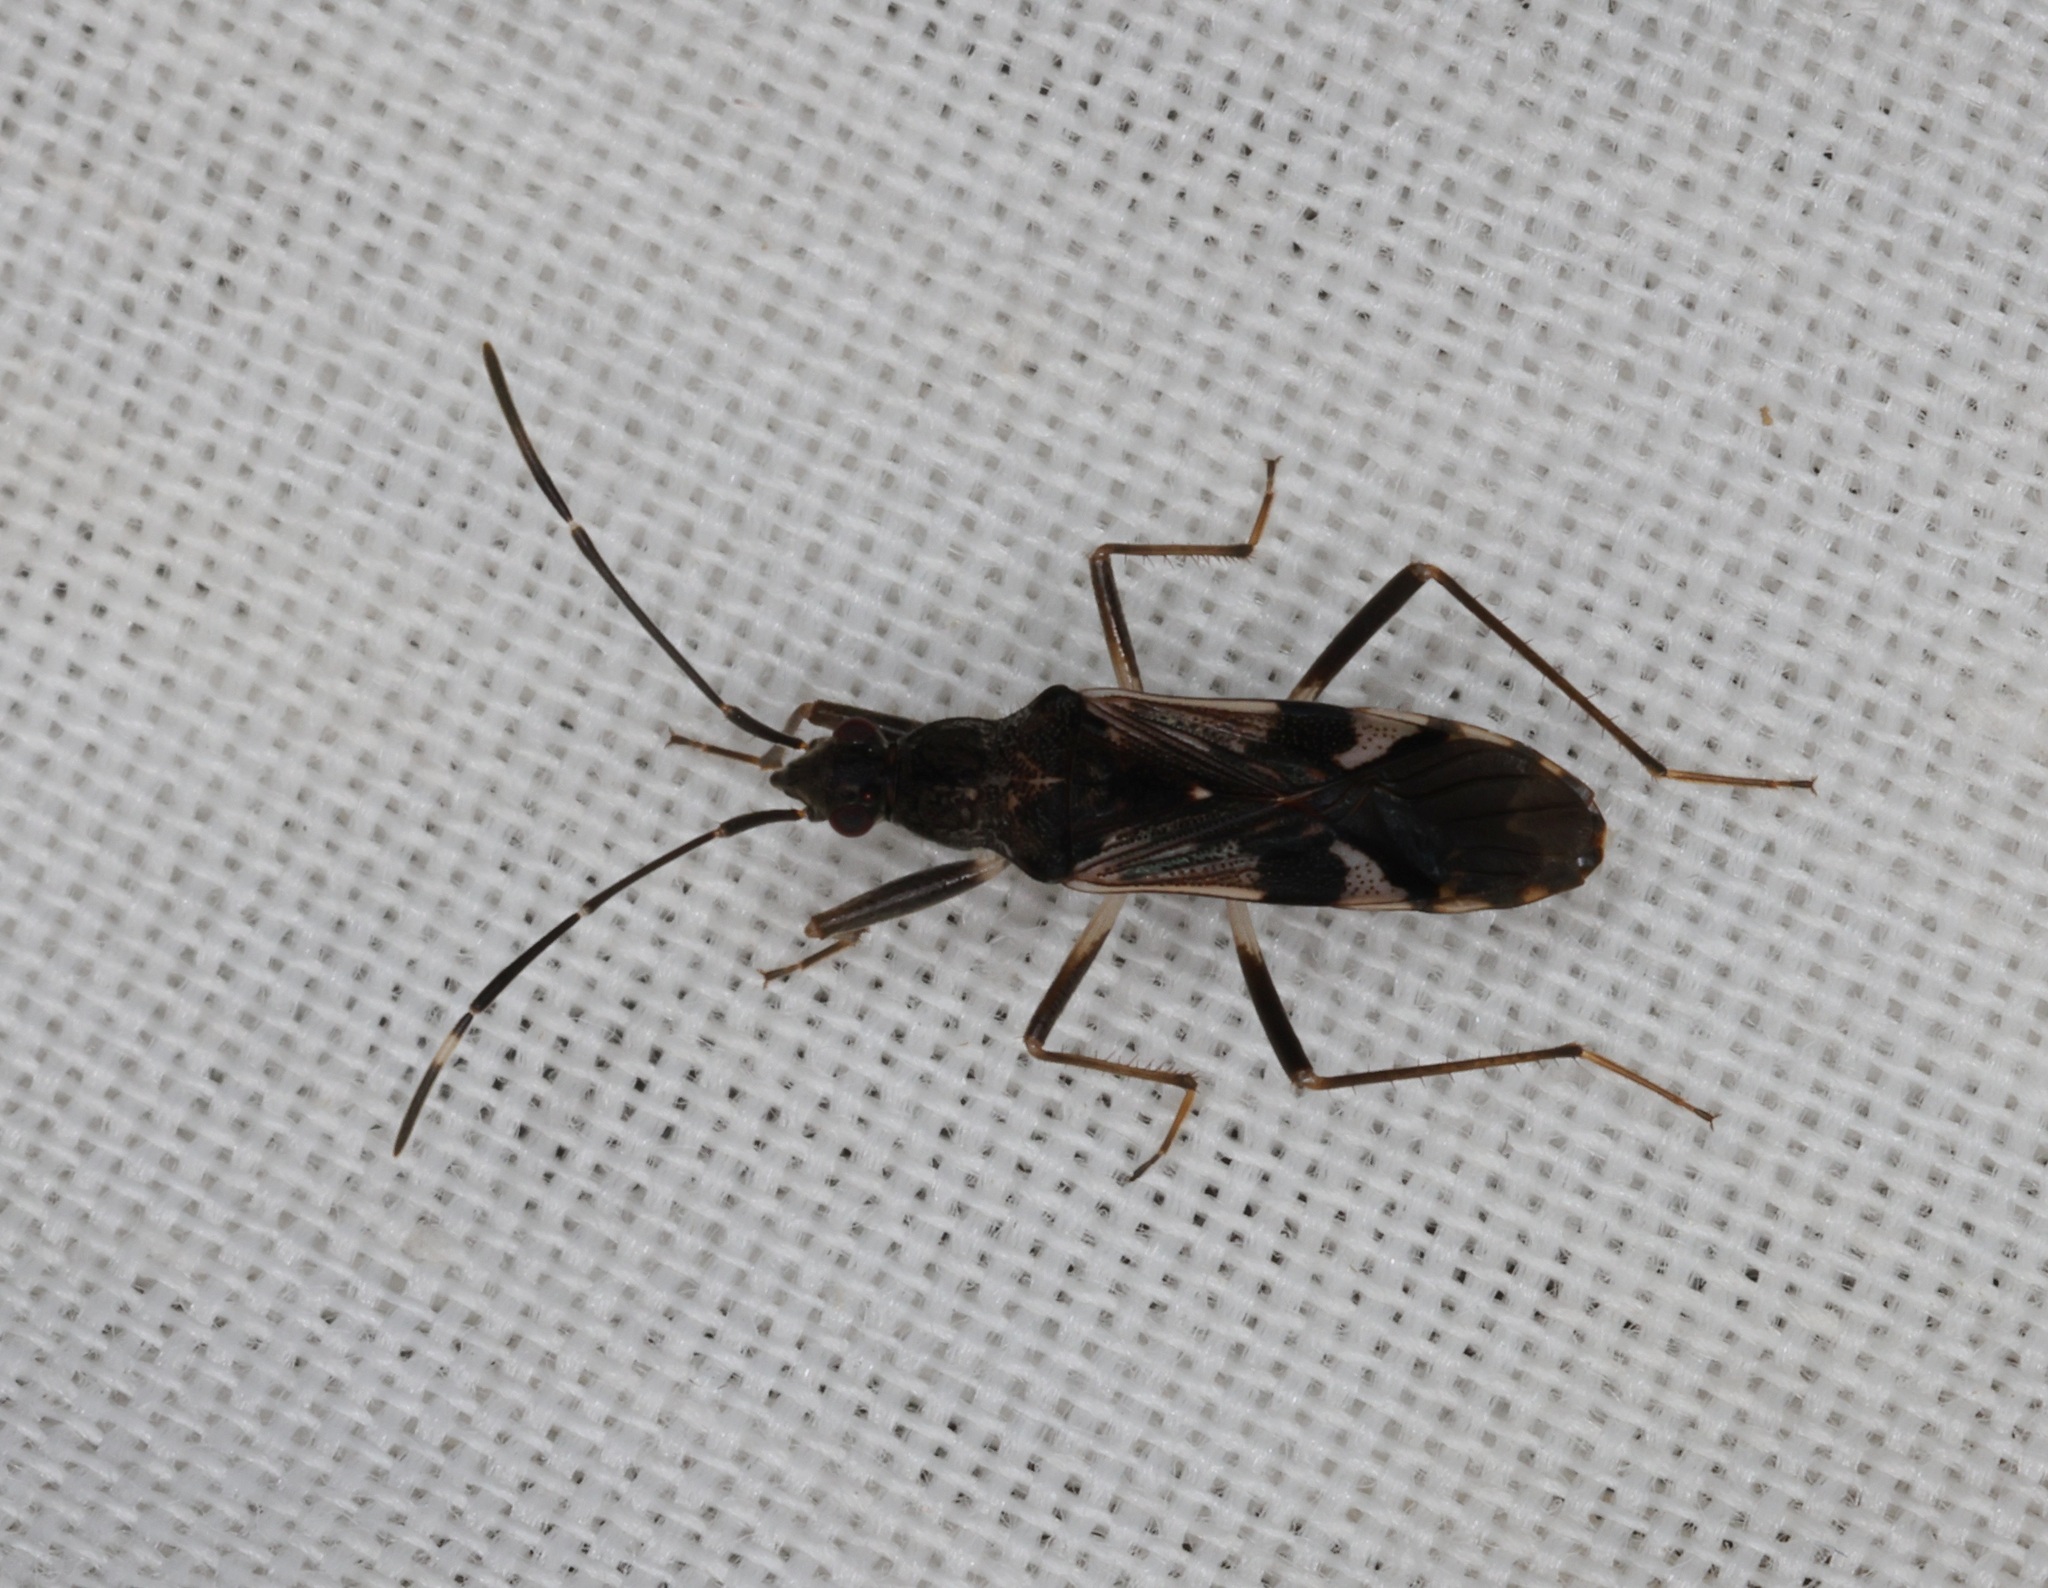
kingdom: Animalia
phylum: Arthropoda
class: Insecta
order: Hemiptera
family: Rhyparochromidae
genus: Metochus
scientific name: Metochus hainanensis
